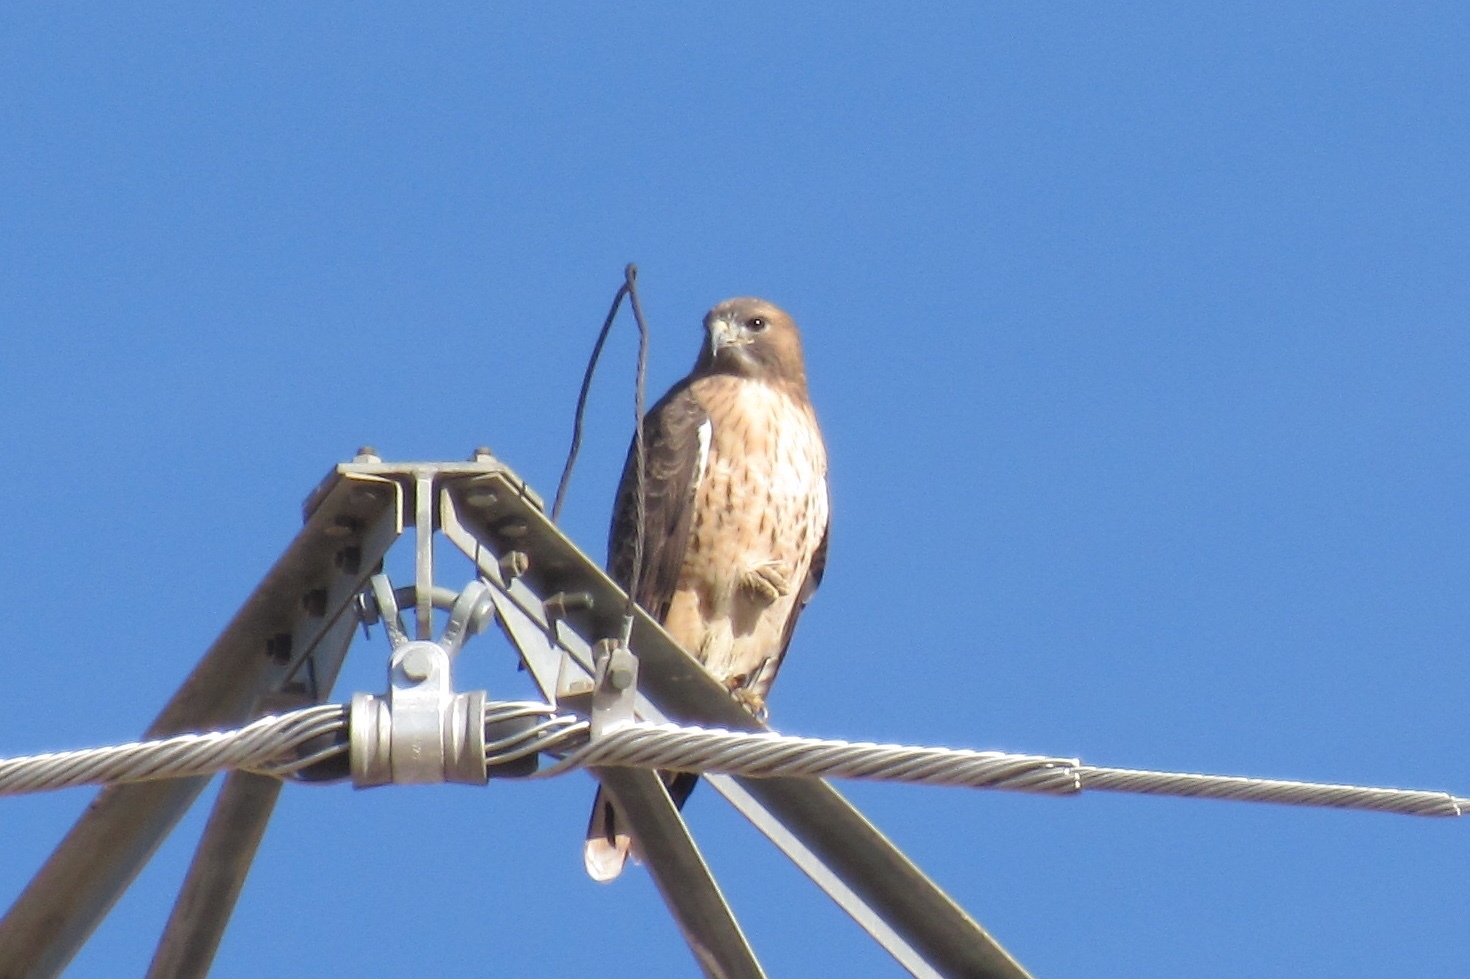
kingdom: Animalia
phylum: Chordata
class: Aves
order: Accipitriformes
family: Accipitridae
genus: Buteo
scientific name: Buteo jamaicensis
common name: Red-tailed hawk
